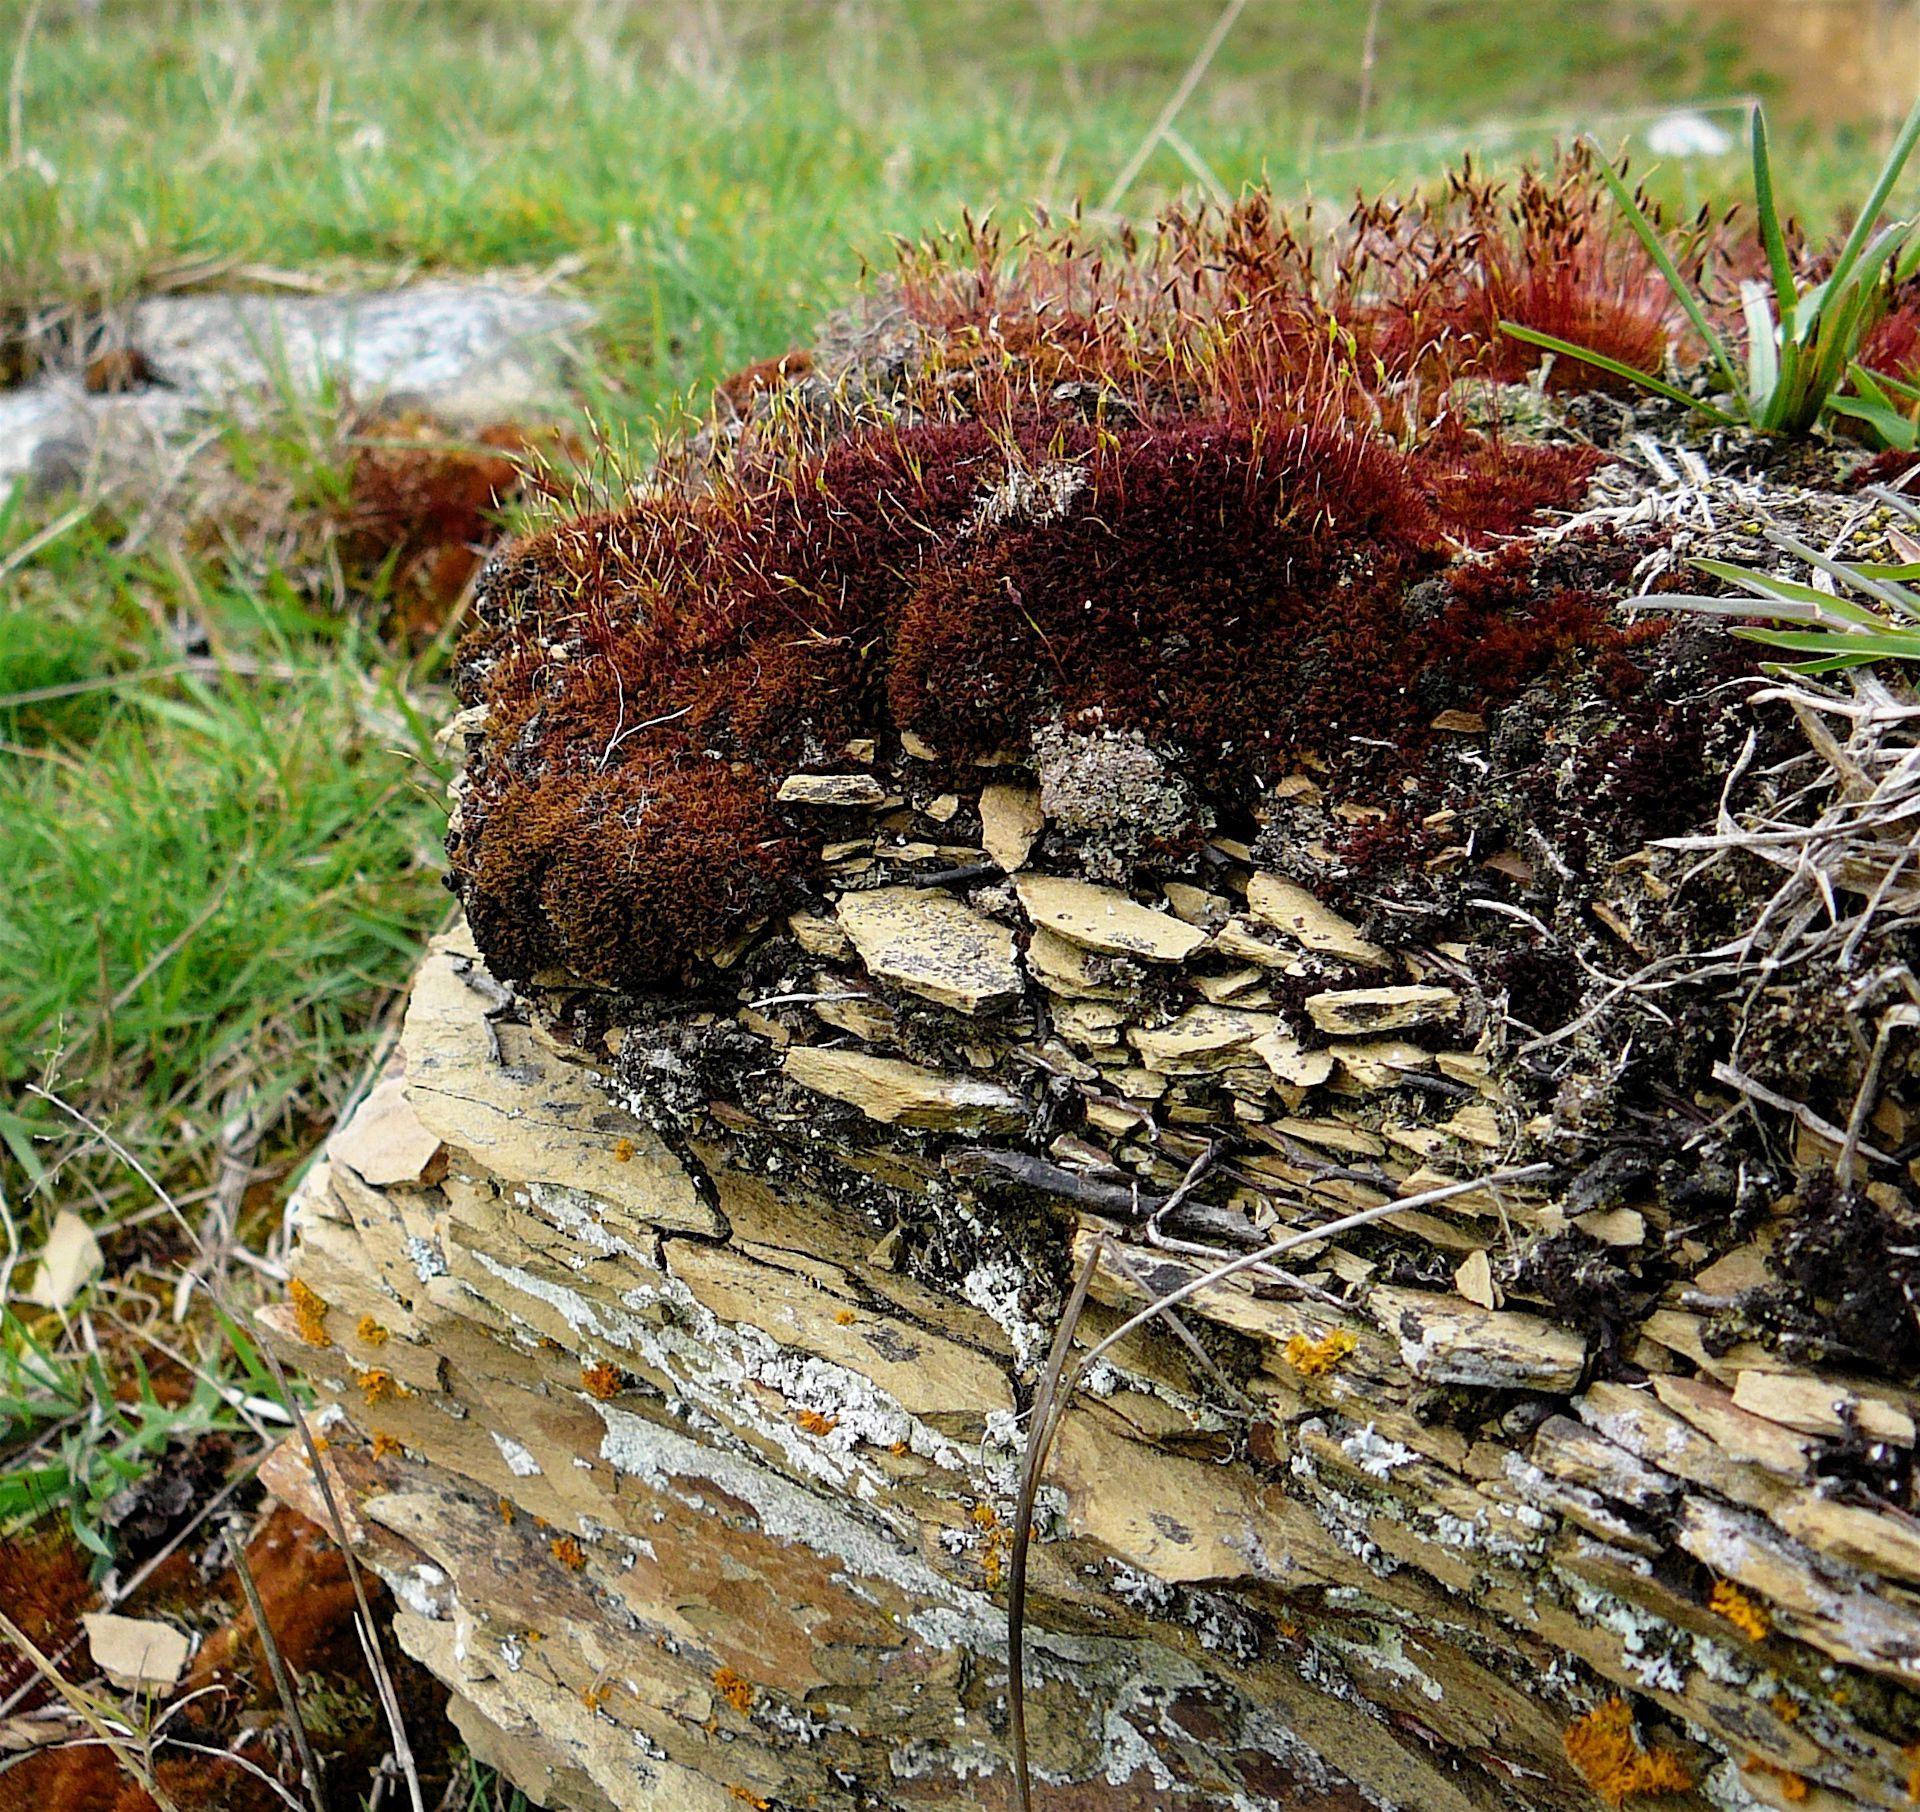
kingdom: Plantae
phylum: Bryophyta
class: Bryopsida
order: Funariales
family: Funariaceae
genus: Funaria
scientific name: Funaria hygrometrica
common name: Common cord moss
